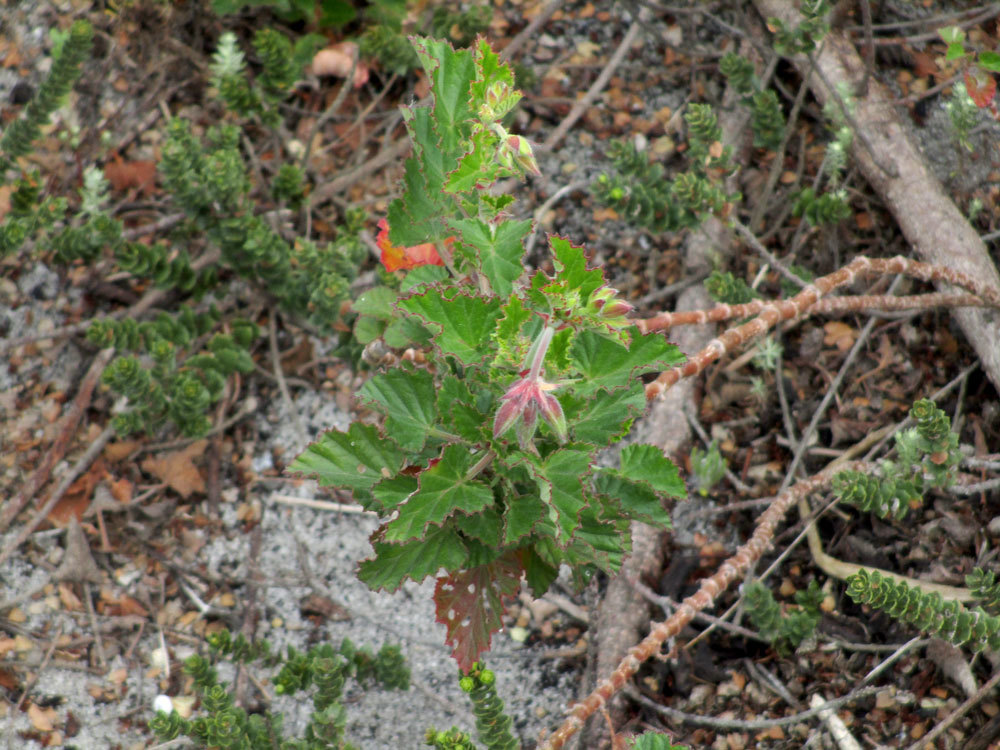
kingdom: Plantae
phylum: Tracheophyta
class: Magnoliopsida
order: Geraniales
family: Geraniaceae
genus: Pelargonium
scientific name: Pelargonium
